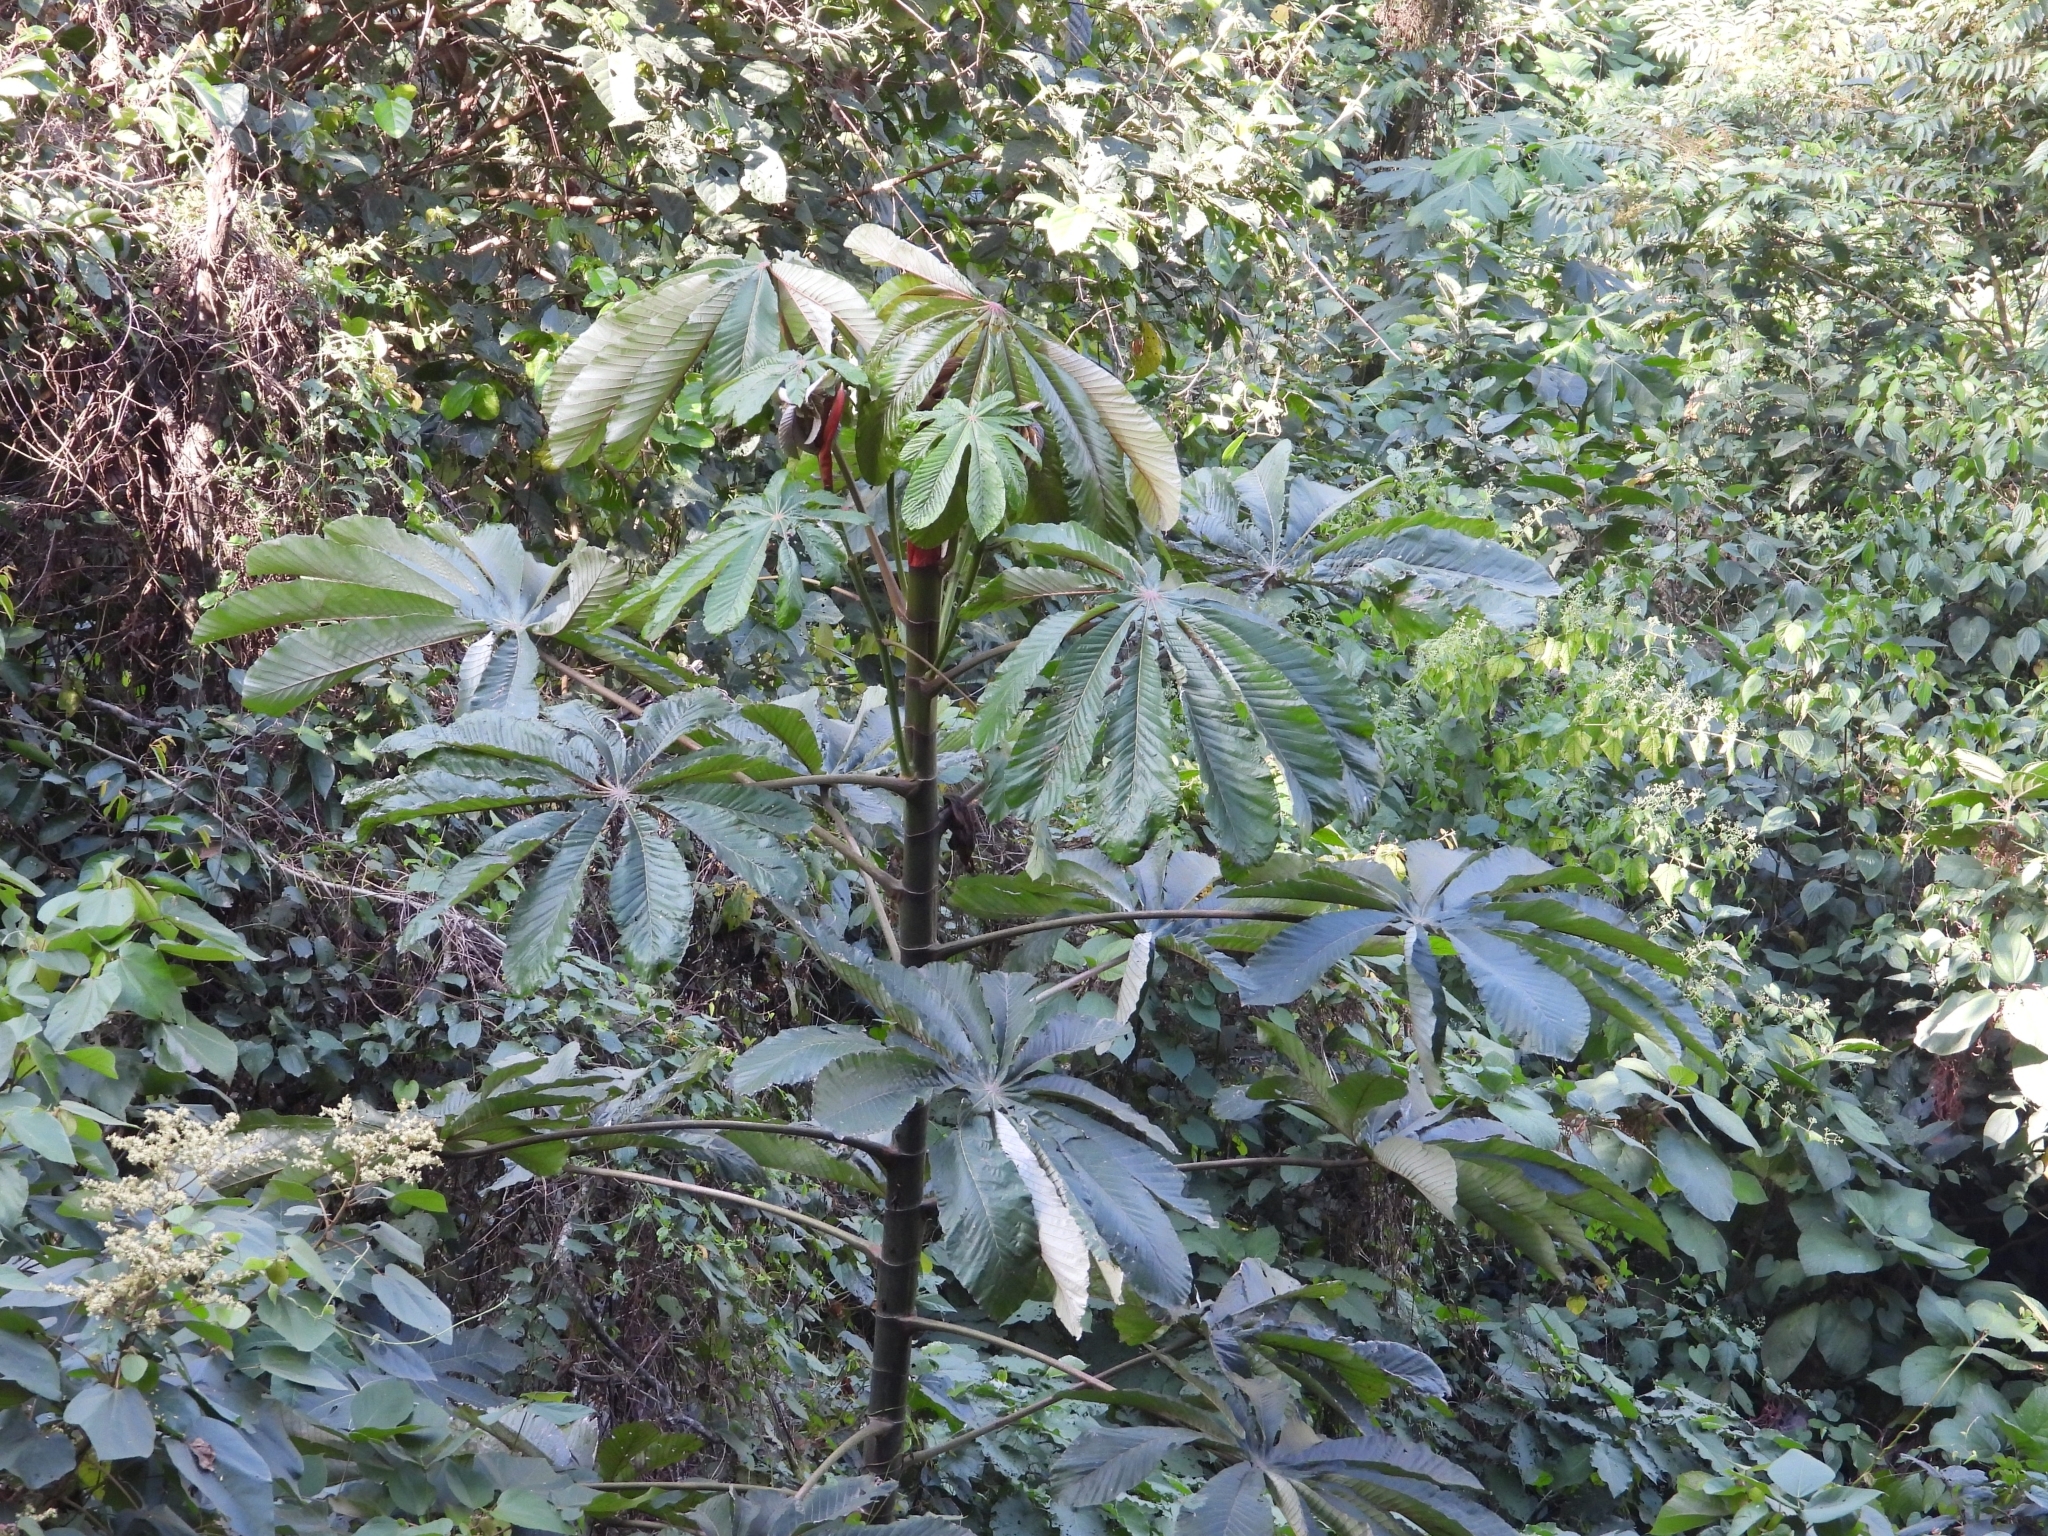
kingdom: Plantae
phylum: Tracheophyta
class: Magnoliopsida
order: Rosales
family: Urticaceae
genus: Cecropia
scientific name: Cecropia peltata
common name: Trumpet-tree
